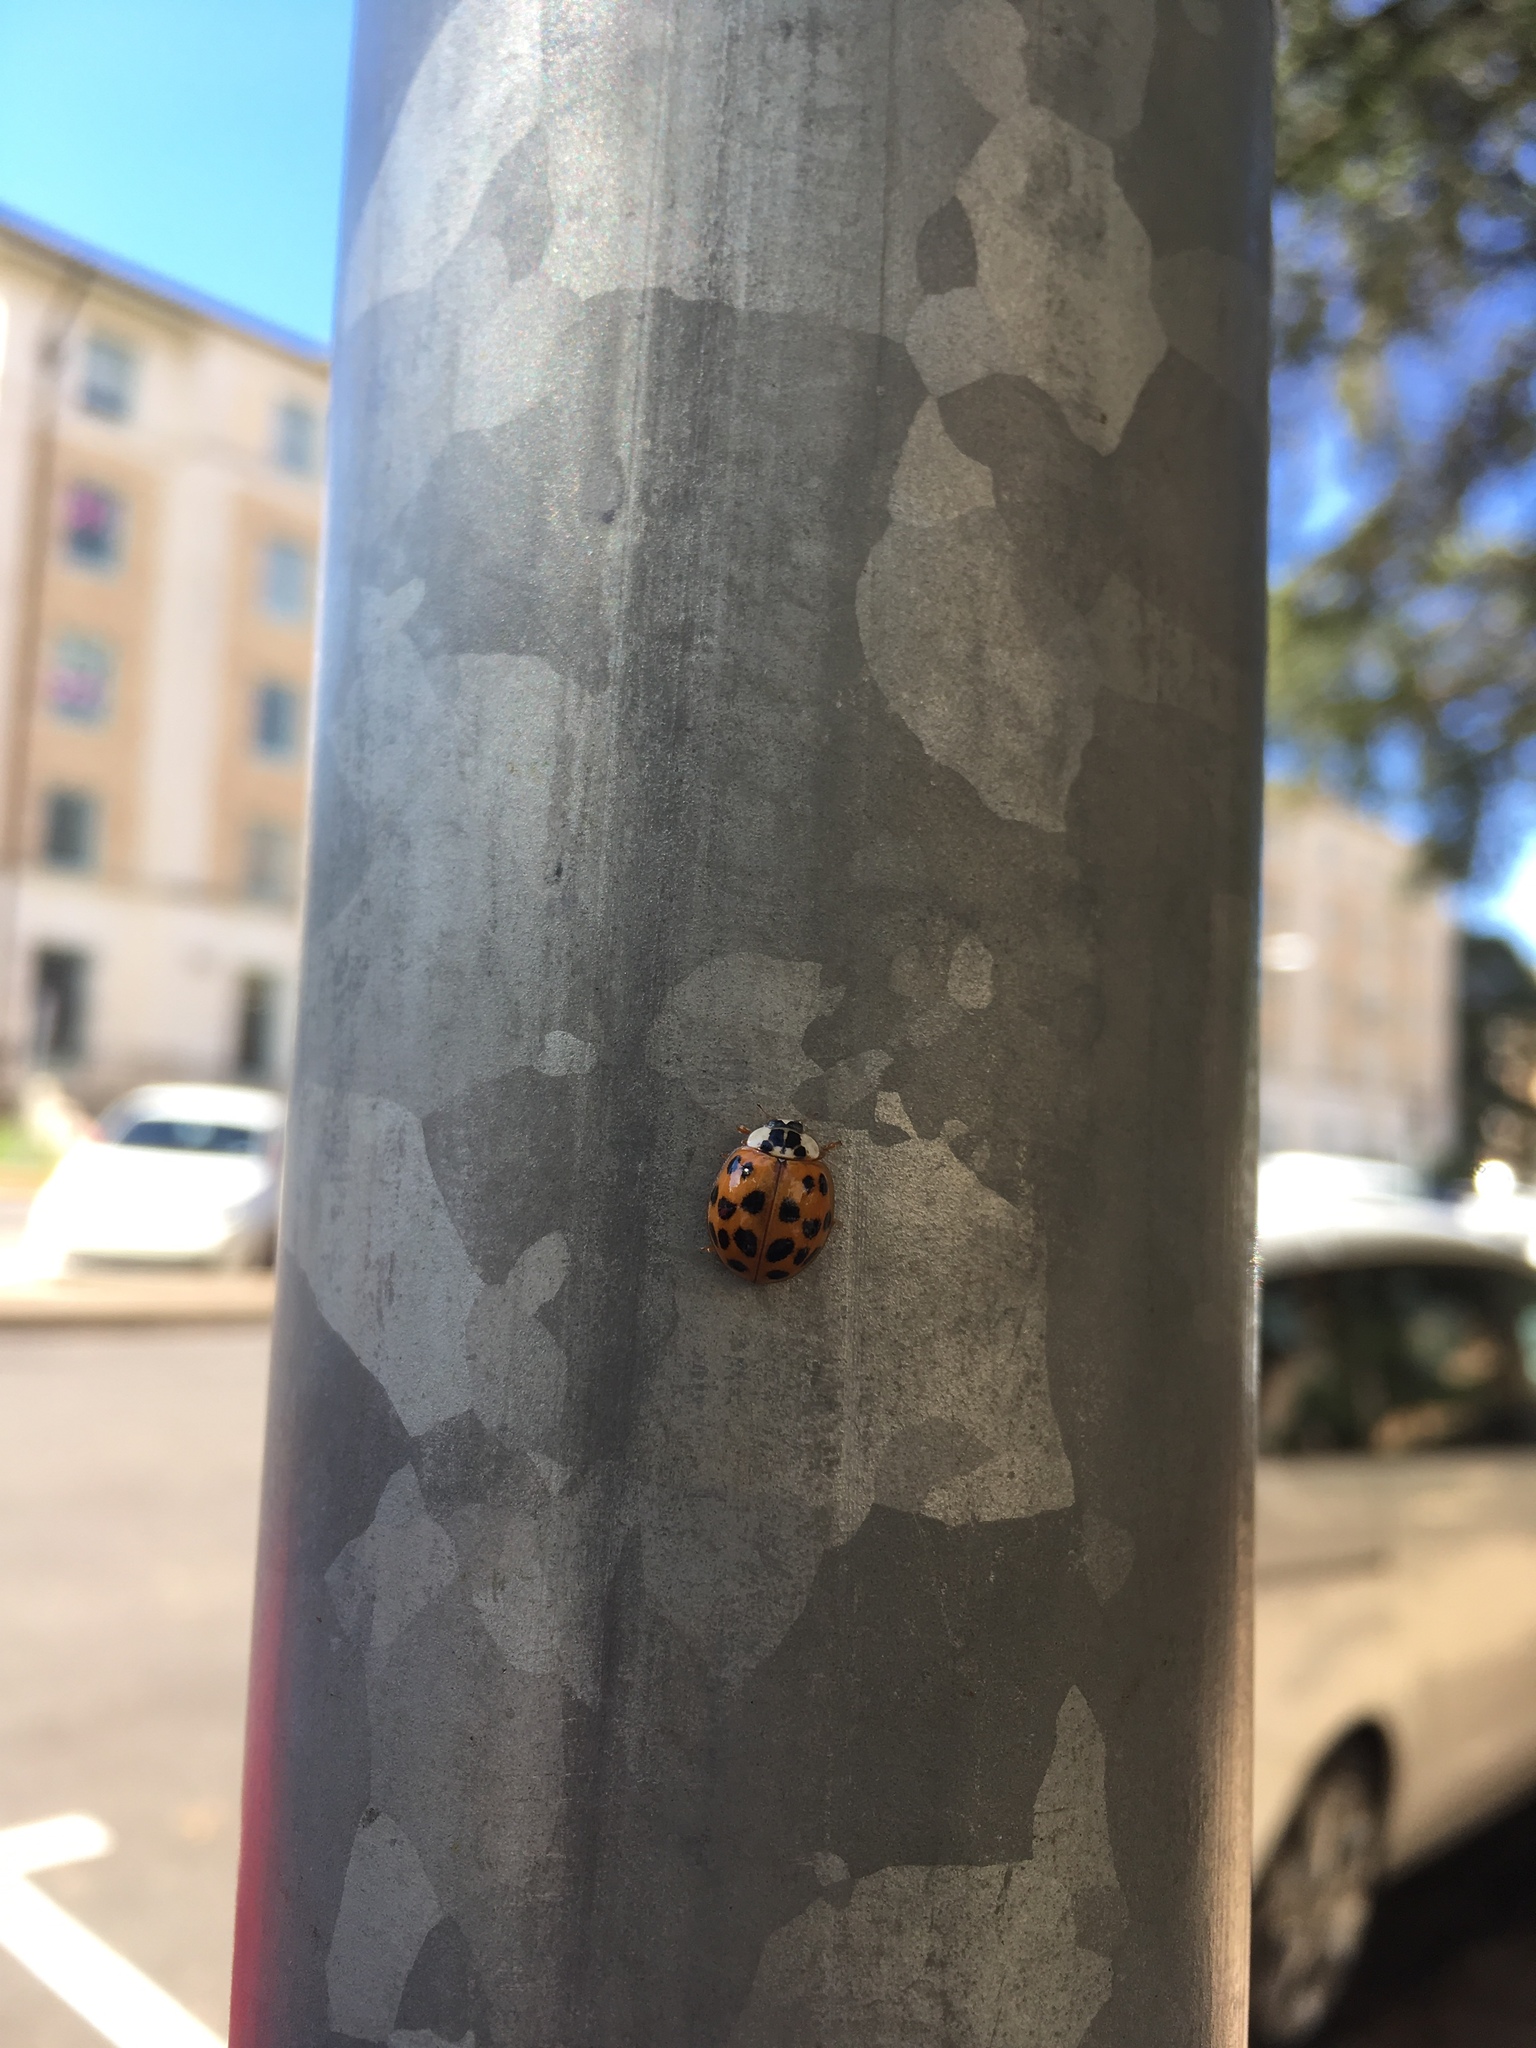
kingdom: Animalia
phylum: Arthropoda
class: Insecta
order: Coleoptera
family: Coccinellidae
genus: Harmonia
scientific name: Harmonia axyridis
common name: Harlequin ladybird
